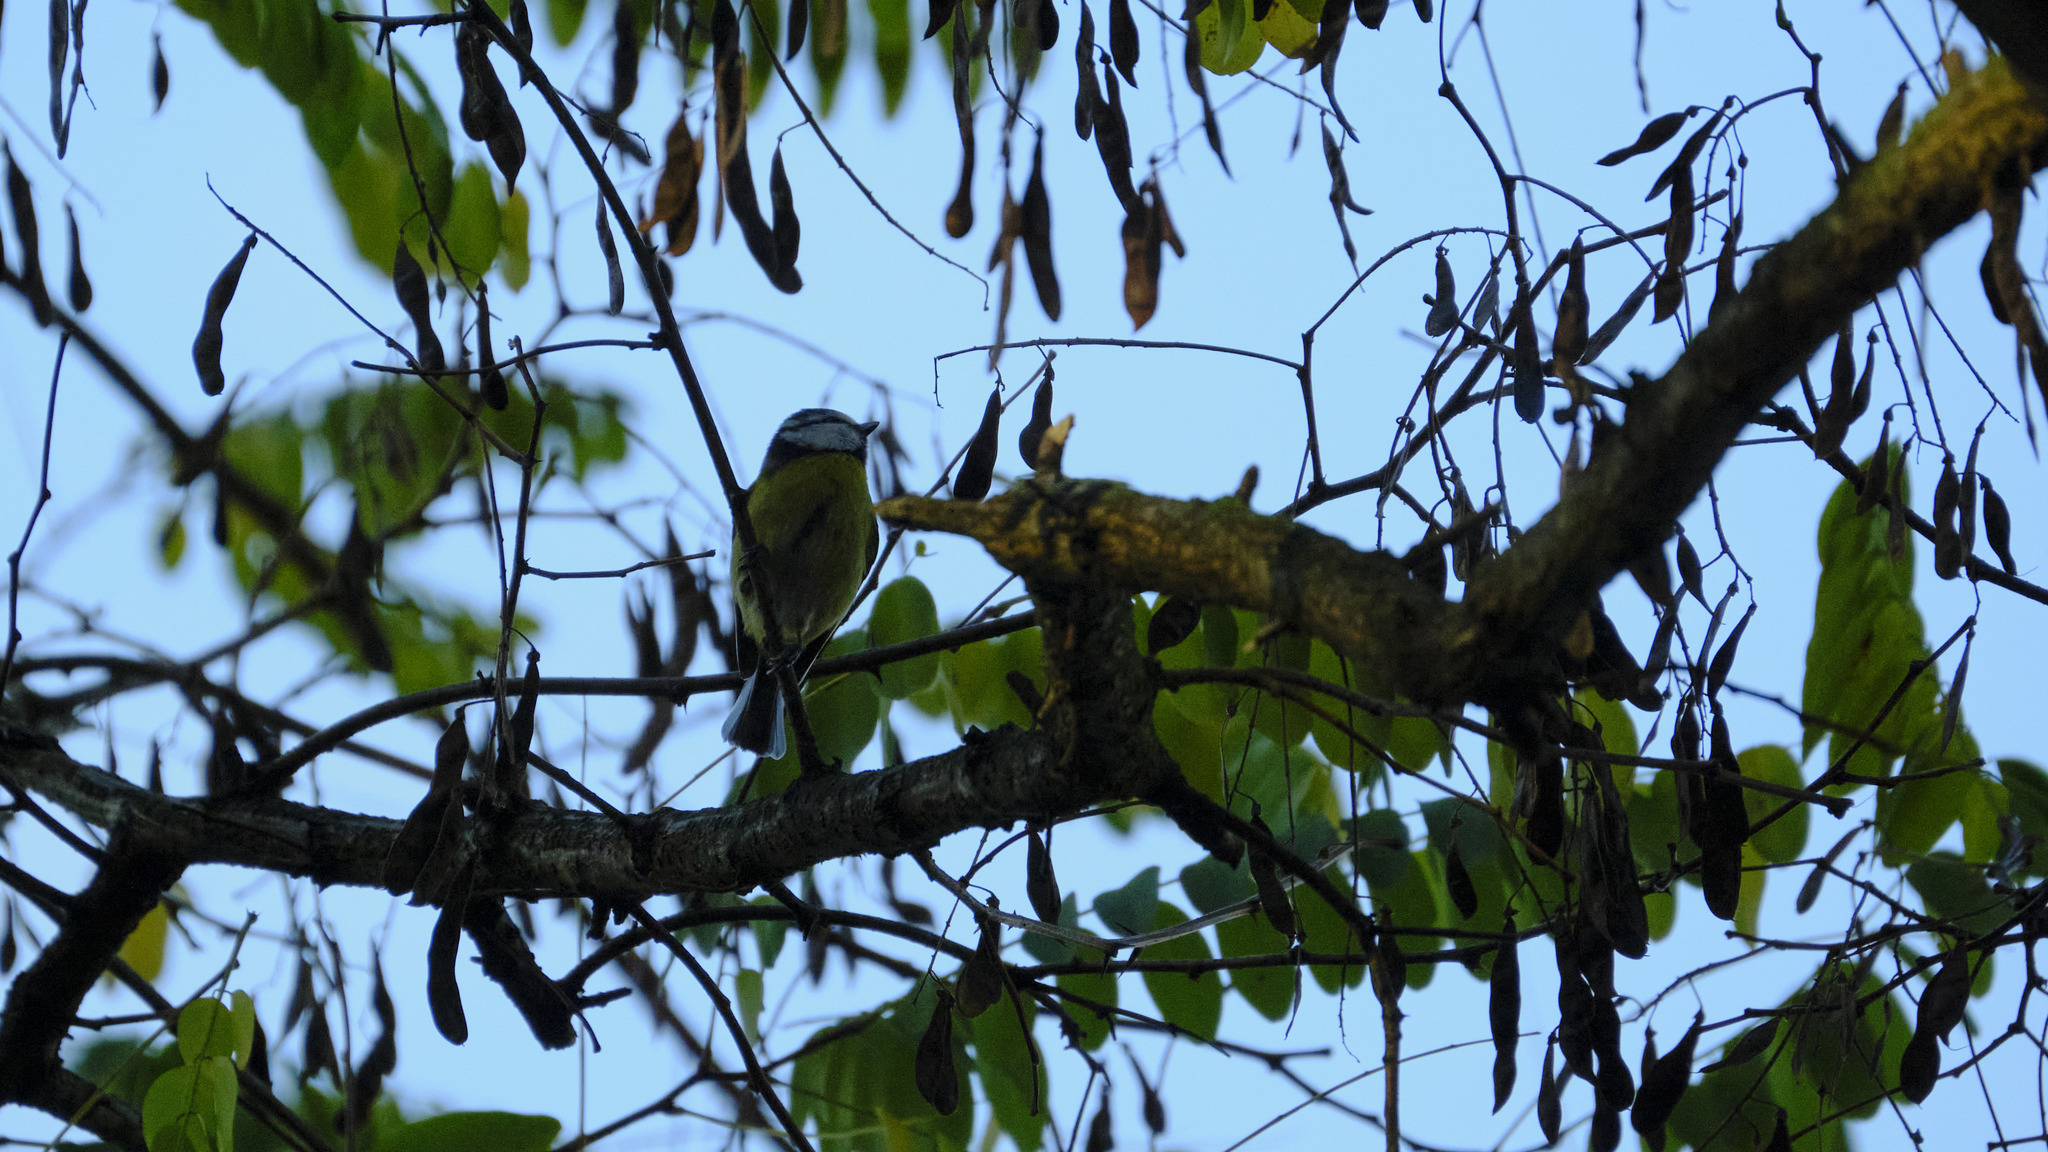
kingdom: Animalia
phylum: Chordata
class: Aves
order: Passeriformes
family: Paridae
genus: Cyanistes
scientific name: Cyanistes caeruleus
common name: Eurasian blue tit
